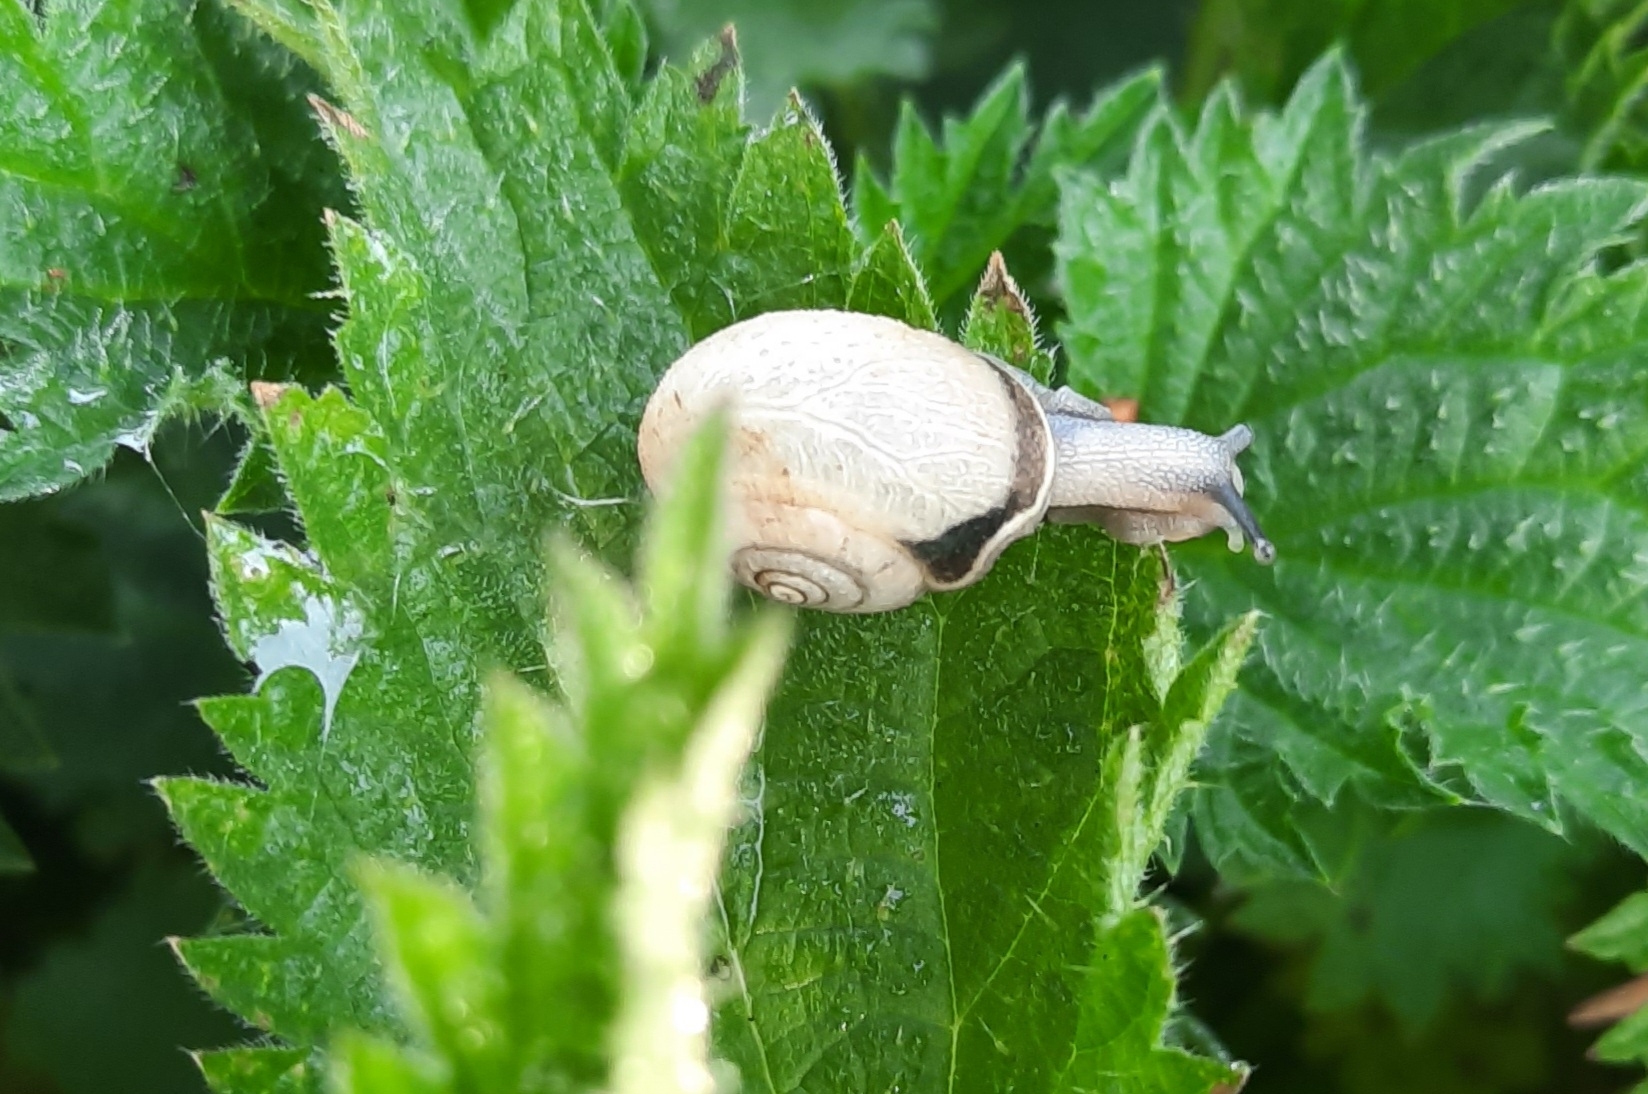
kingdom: Animalia
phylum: Mollusca
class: Gastropoda
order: Stylommatophora
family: Hygromiidae
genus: Monacha
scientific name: Monacha cantiana
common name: Kentish snail
